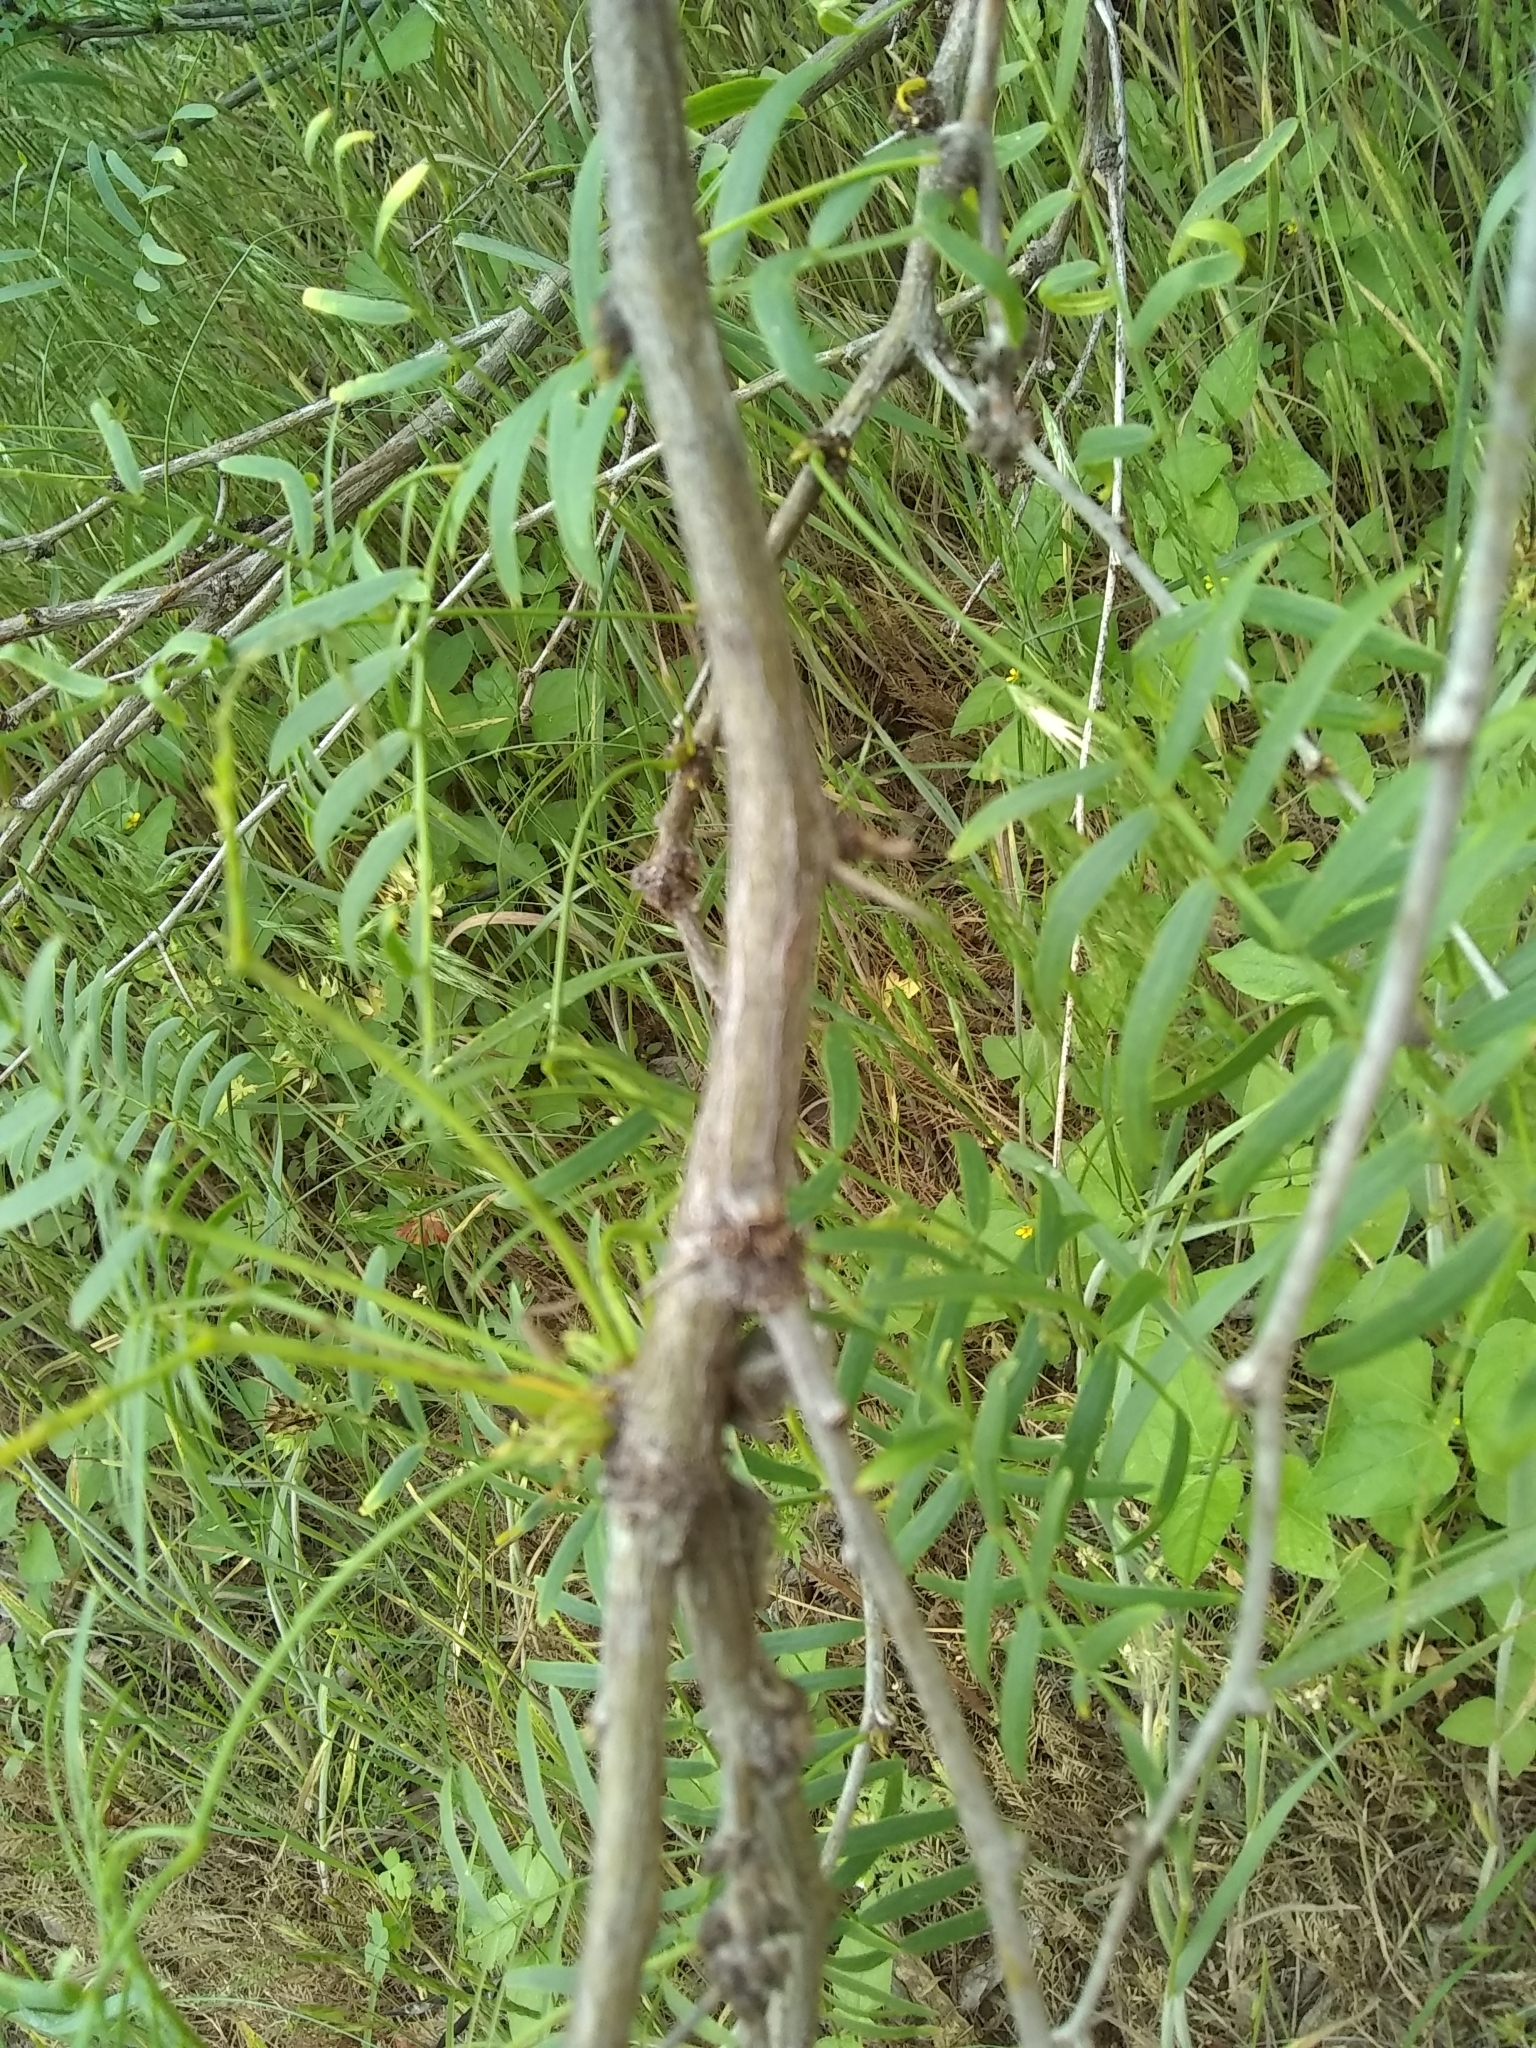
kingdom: Plantae
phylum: Tracheophyta
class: Magnoliopsida
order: Fabales
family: Fabaceae
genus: Prosopis
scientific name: Prosopis glandulosa
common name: Honey mesquite
